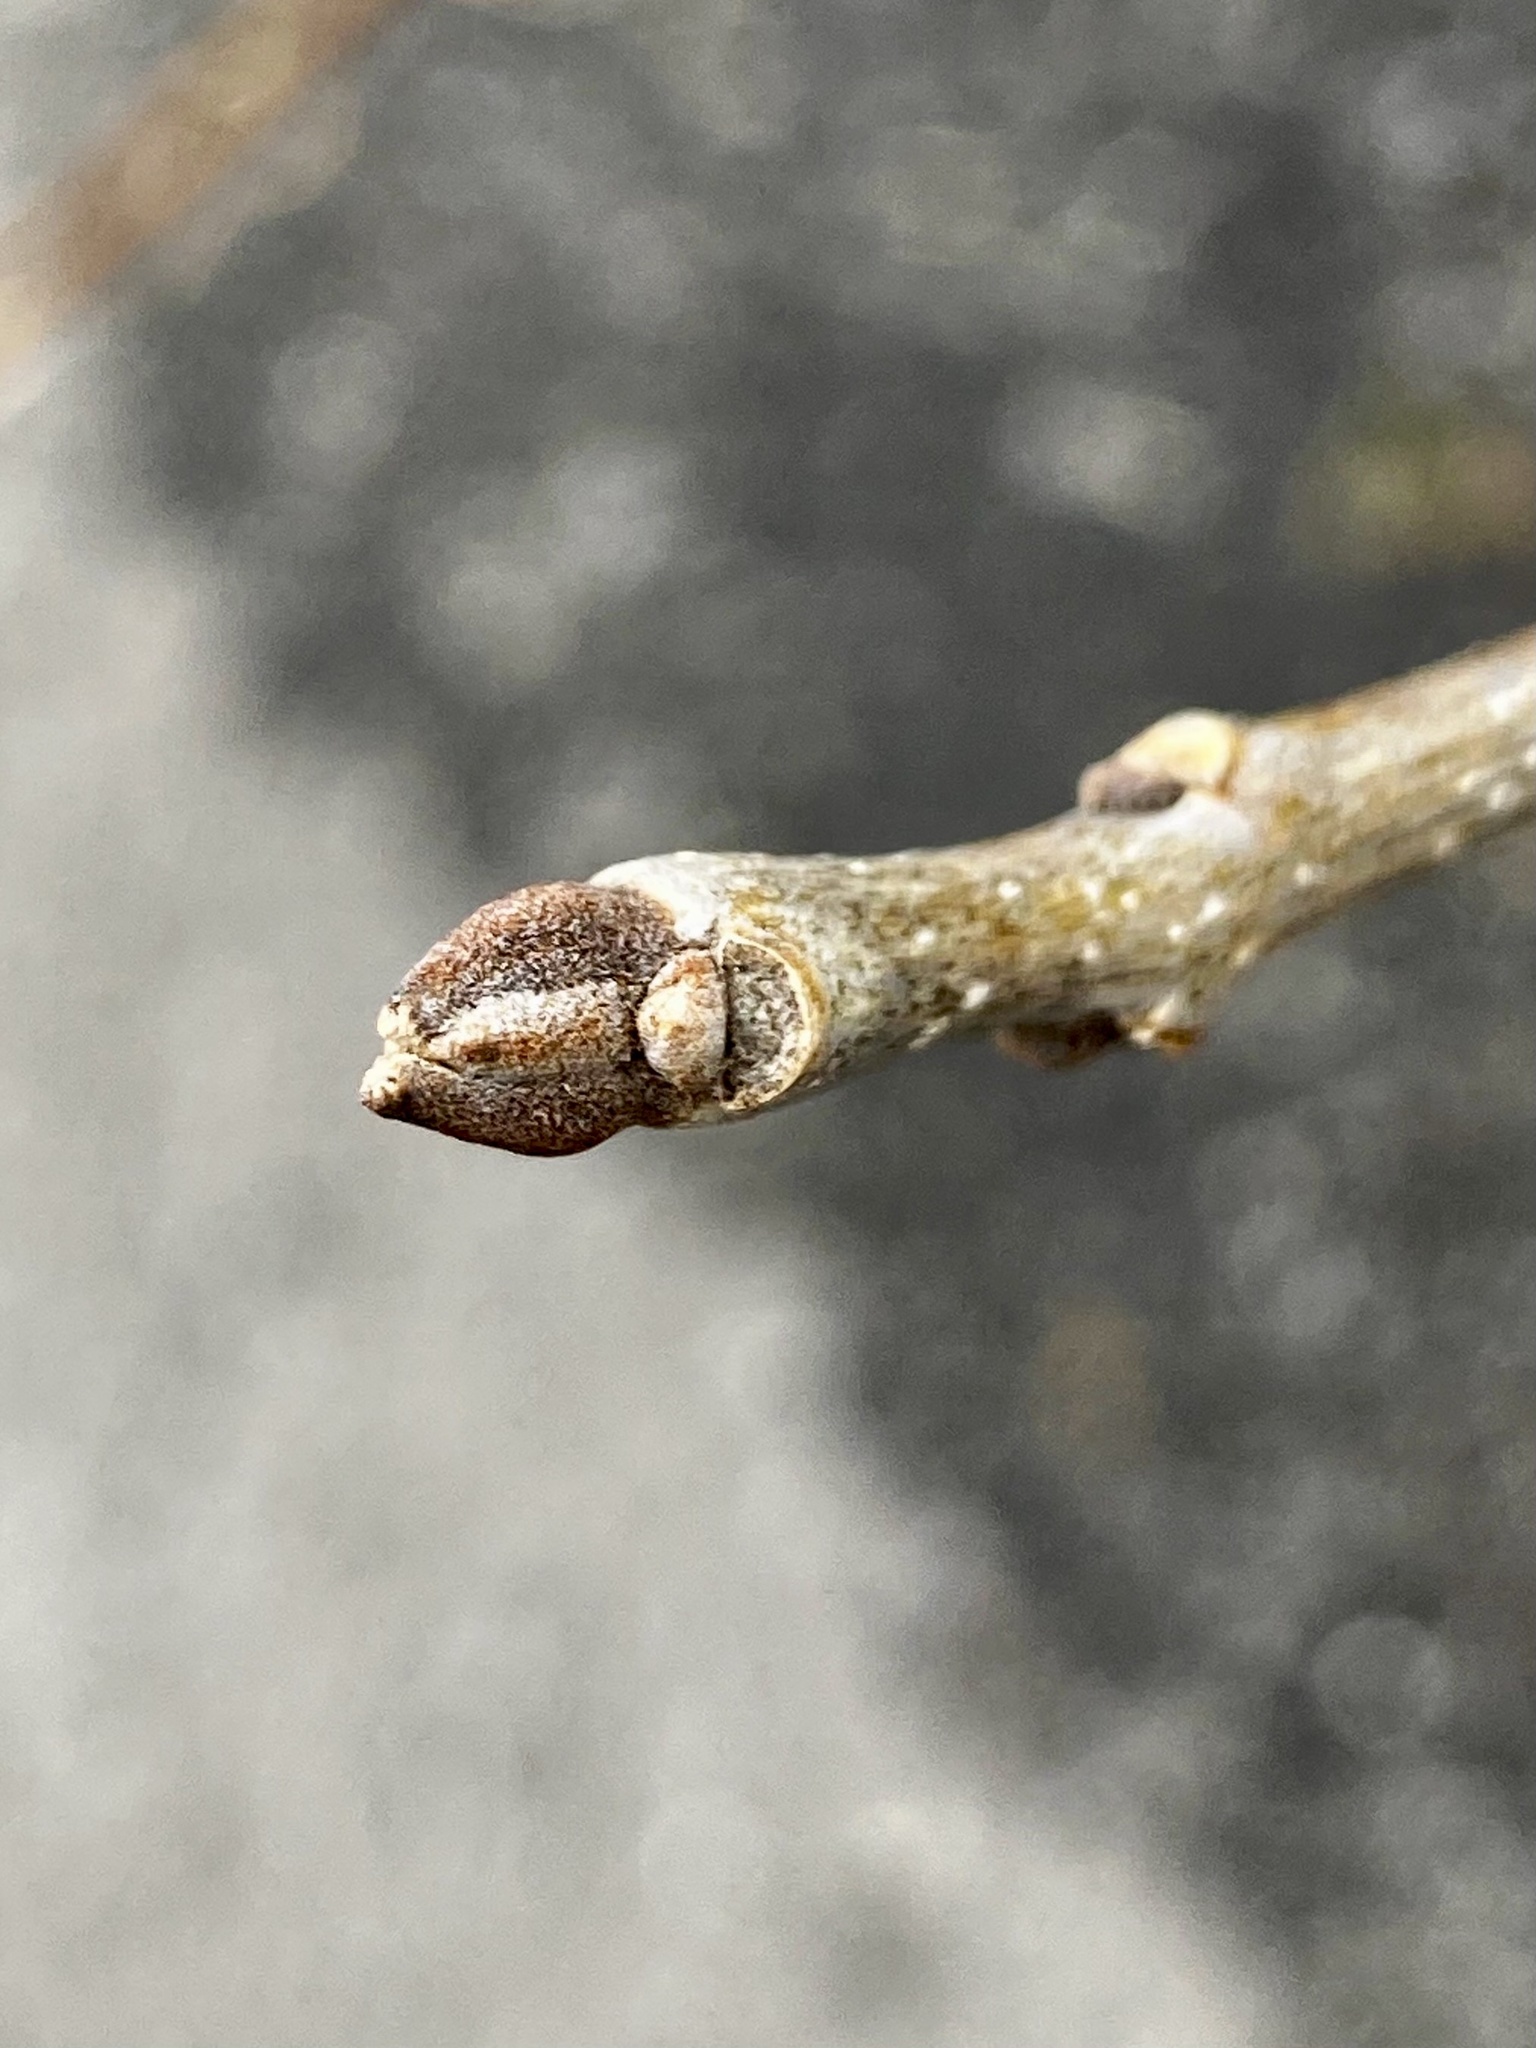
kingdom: Plantae
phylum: Tracheophyta
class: Magnoliopsida
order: Lamiales
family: Oleaceae
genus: Fraxinus
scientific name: Fraxinus pennsylvanica
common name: Green ash
